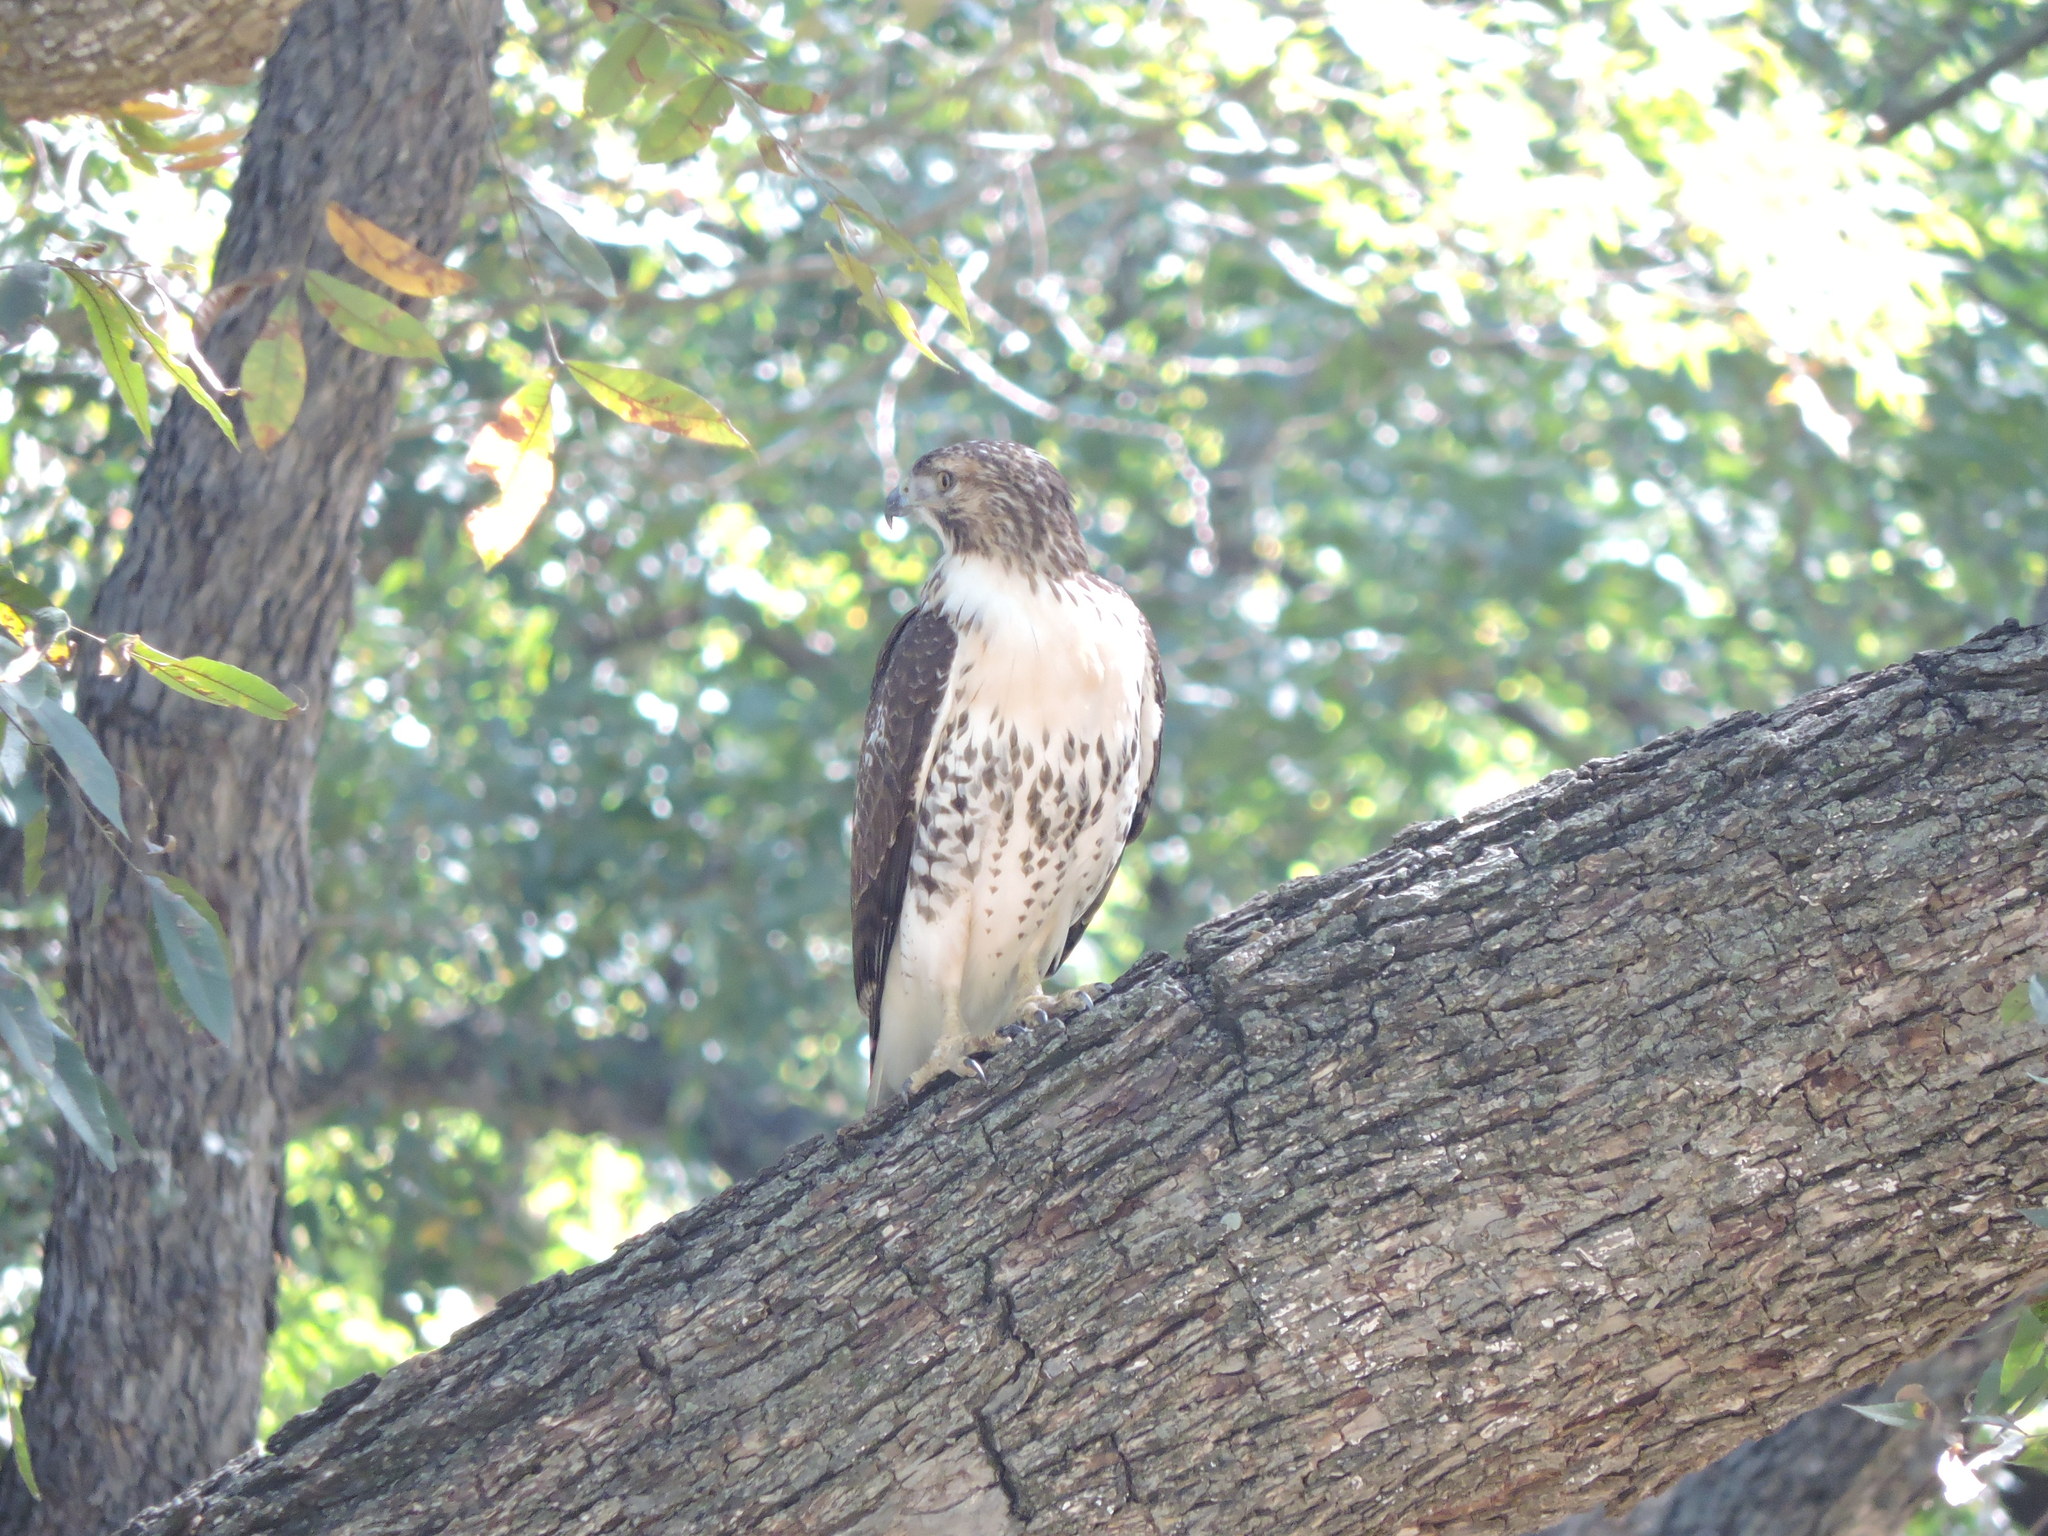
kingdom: Animalia
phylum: Chordata
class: Aves
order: Accipitriformes
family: Accipitridae
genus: Buteo
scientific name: Buteo jamaicensis
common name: Red-tailed hawk
